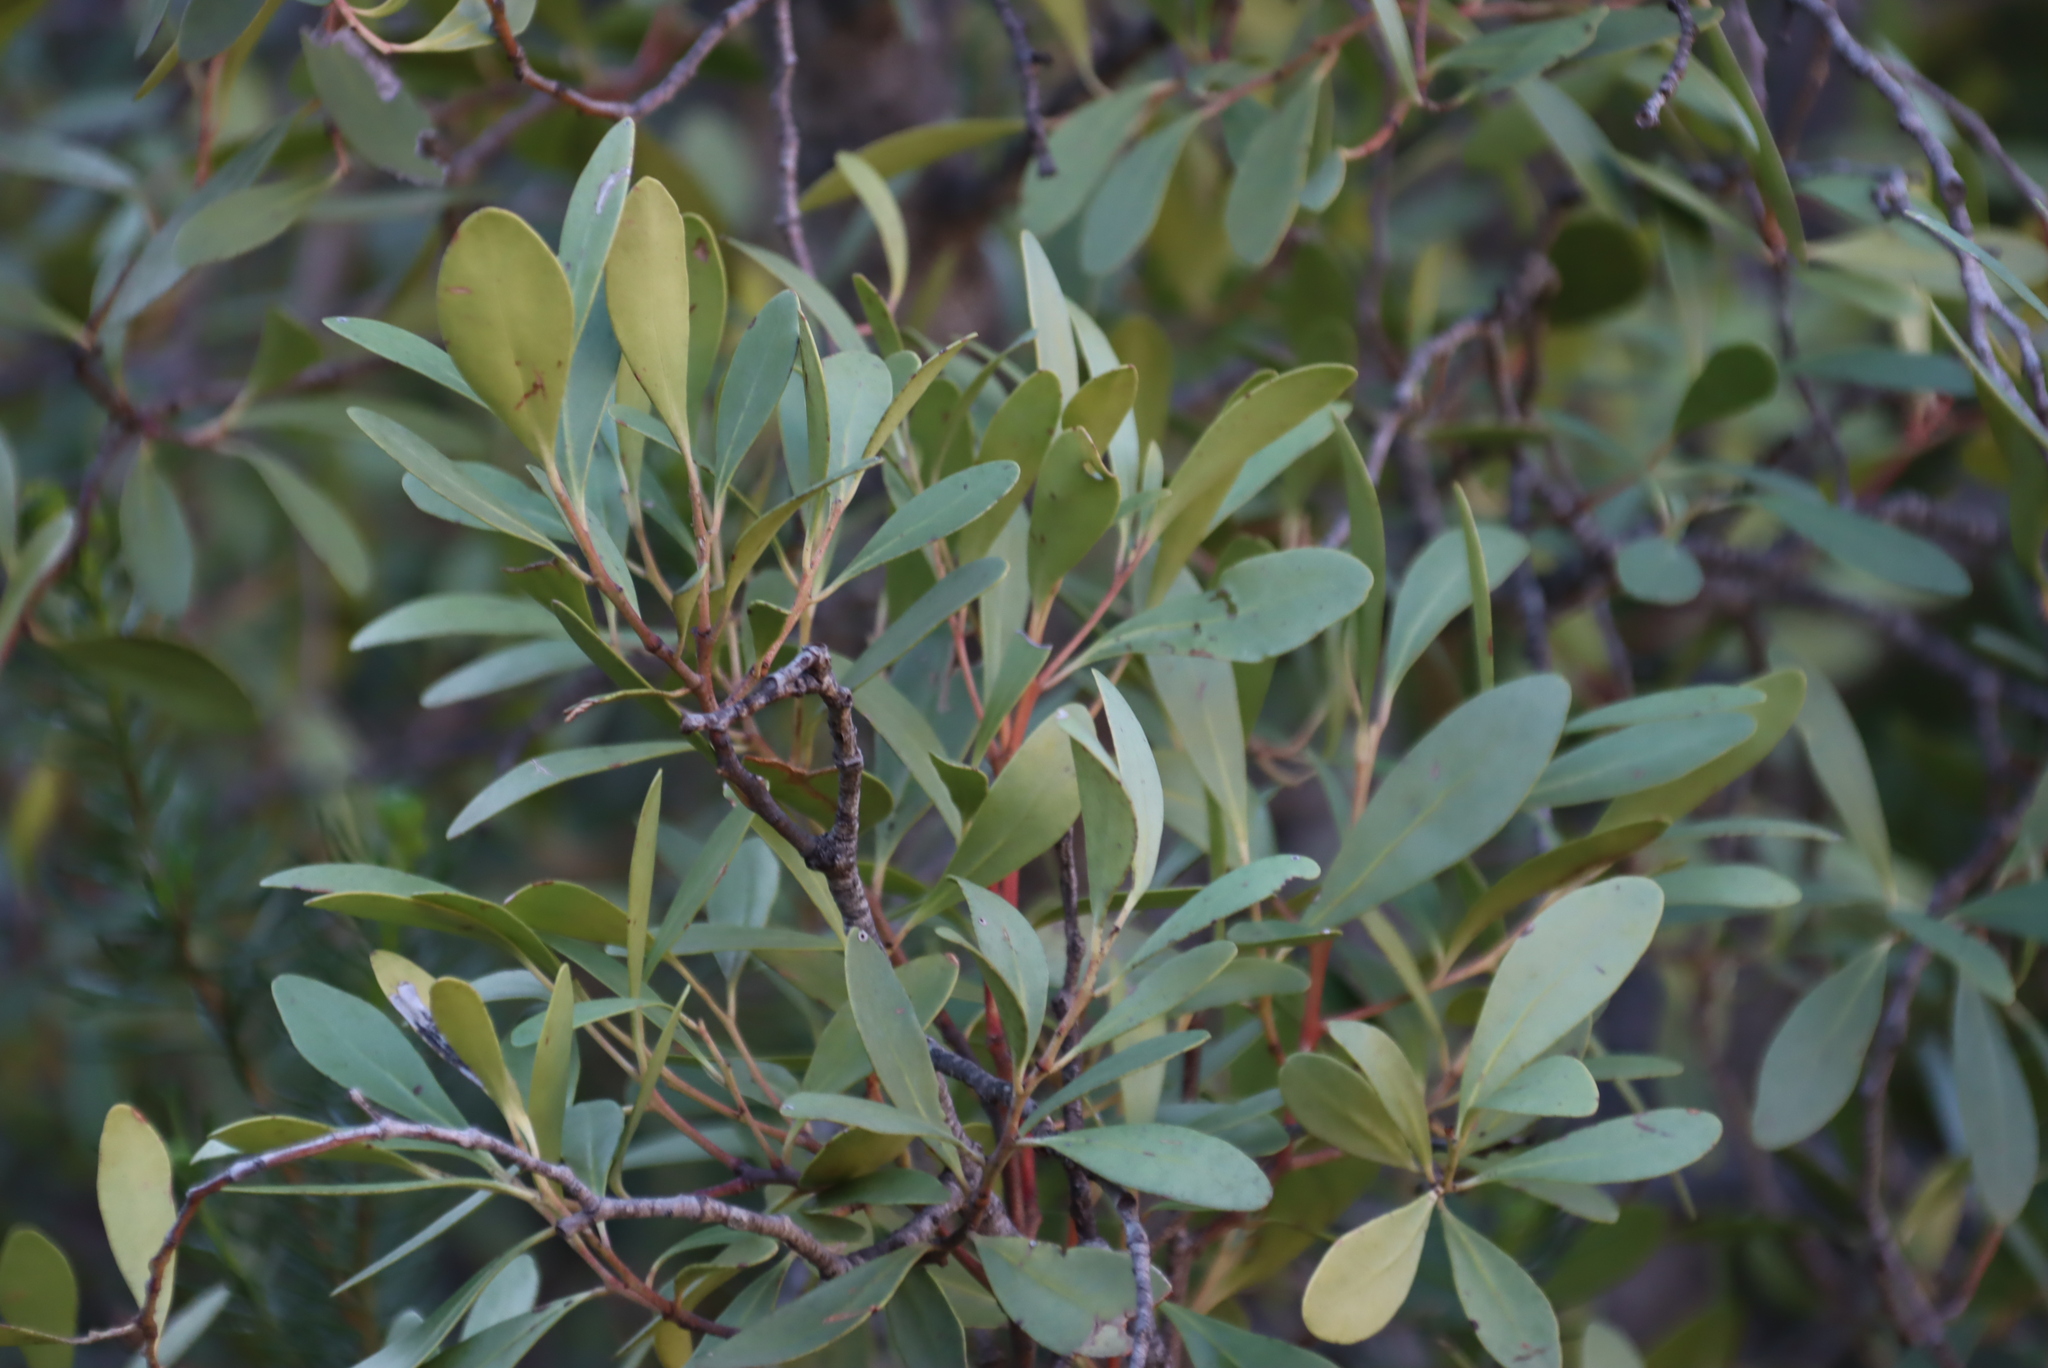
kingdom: Plantae
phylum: Tracheophyta
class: Magnoliopsida
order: Celastrales
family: Celastraceae
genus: Gymnosporia
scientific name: Gymnosporia laurina
